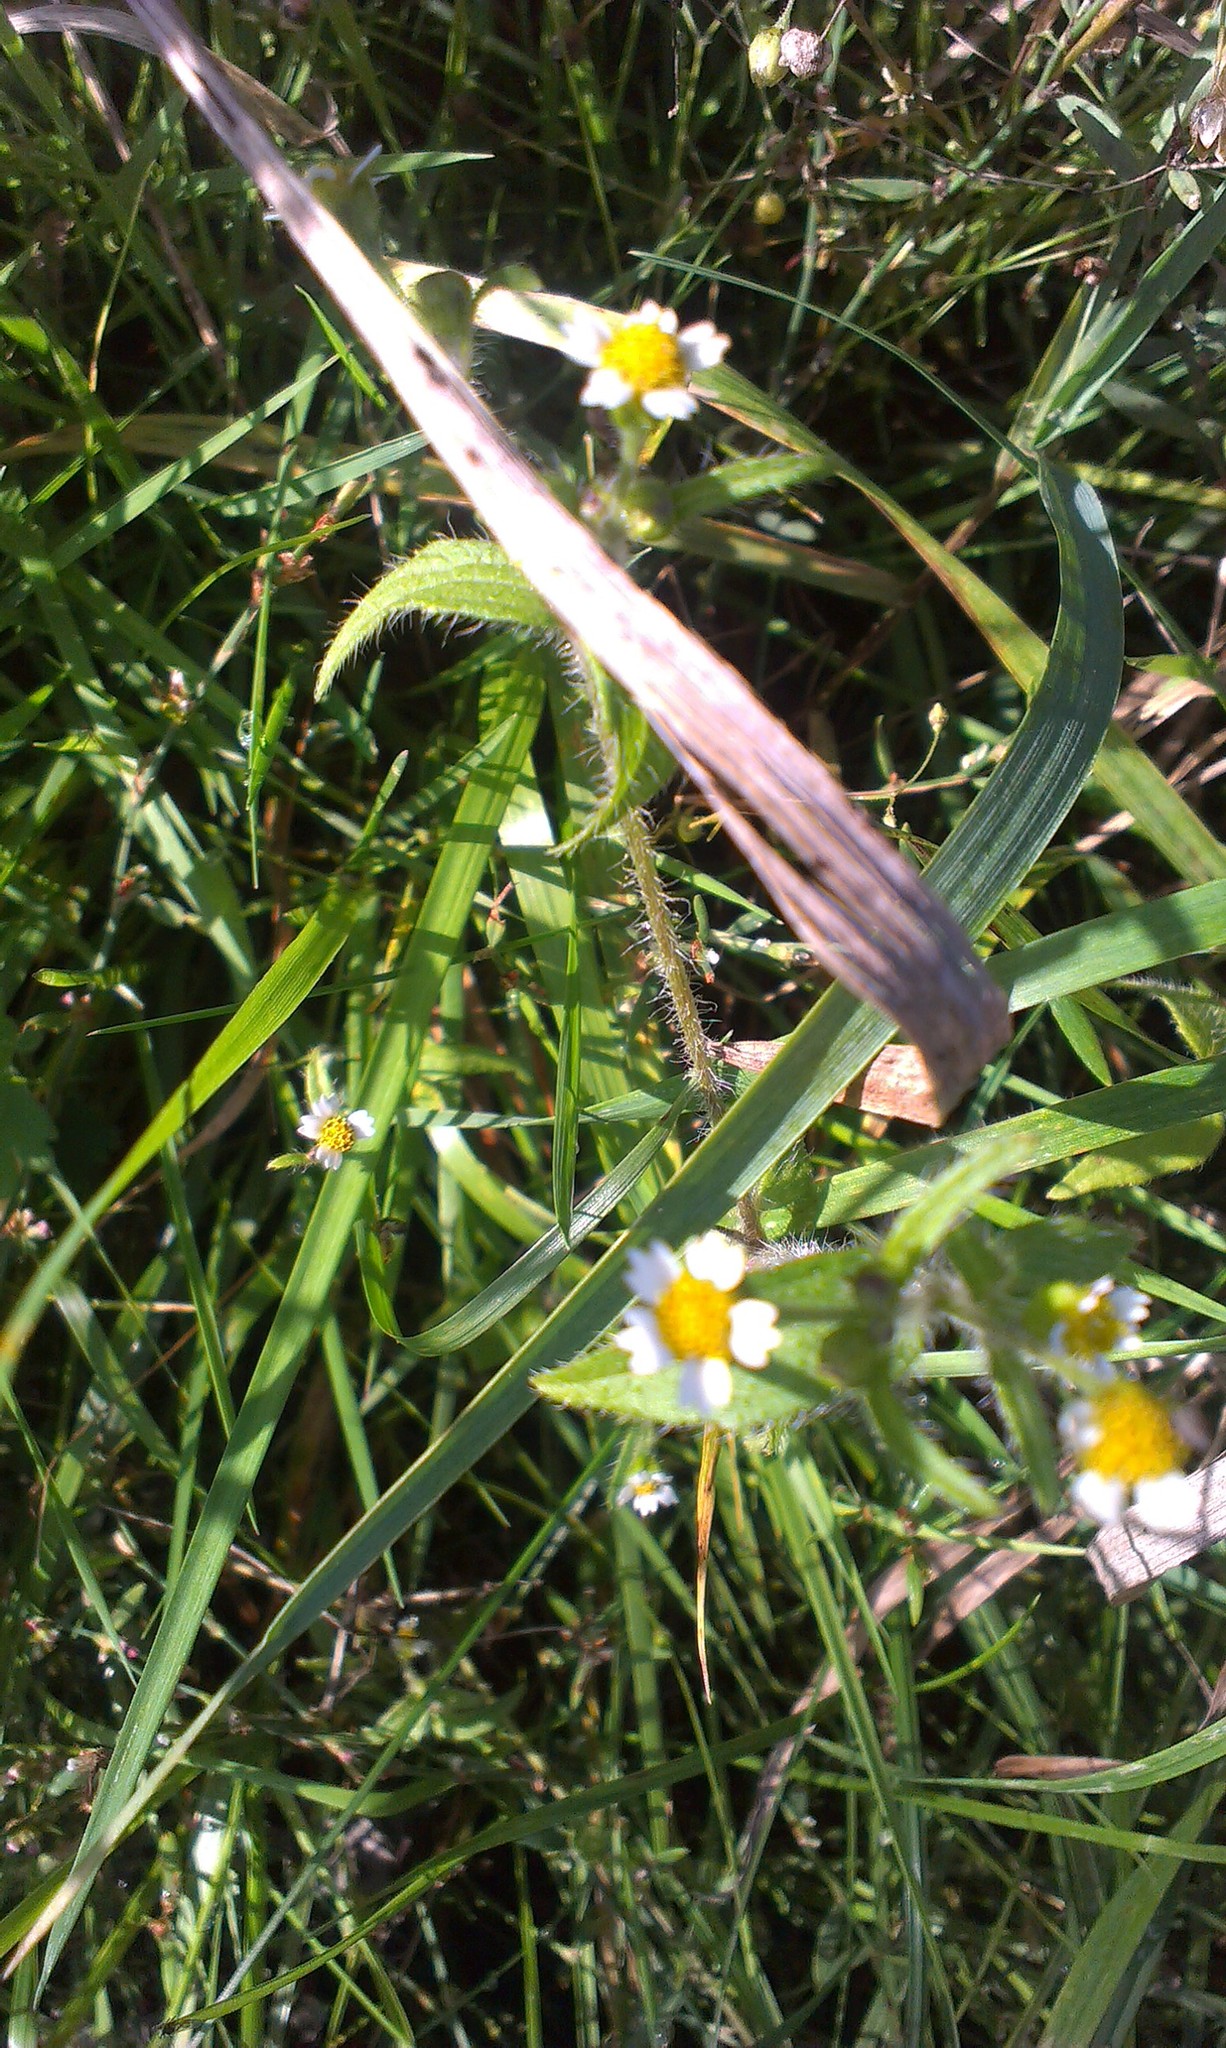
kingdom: Plantae
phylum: Tracheophyta
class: Magnoliopsida
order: Asterales
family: Asteraceae
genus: Galinsoga
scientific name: Galinsoga quadriradiata
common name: Shaggy soldier
